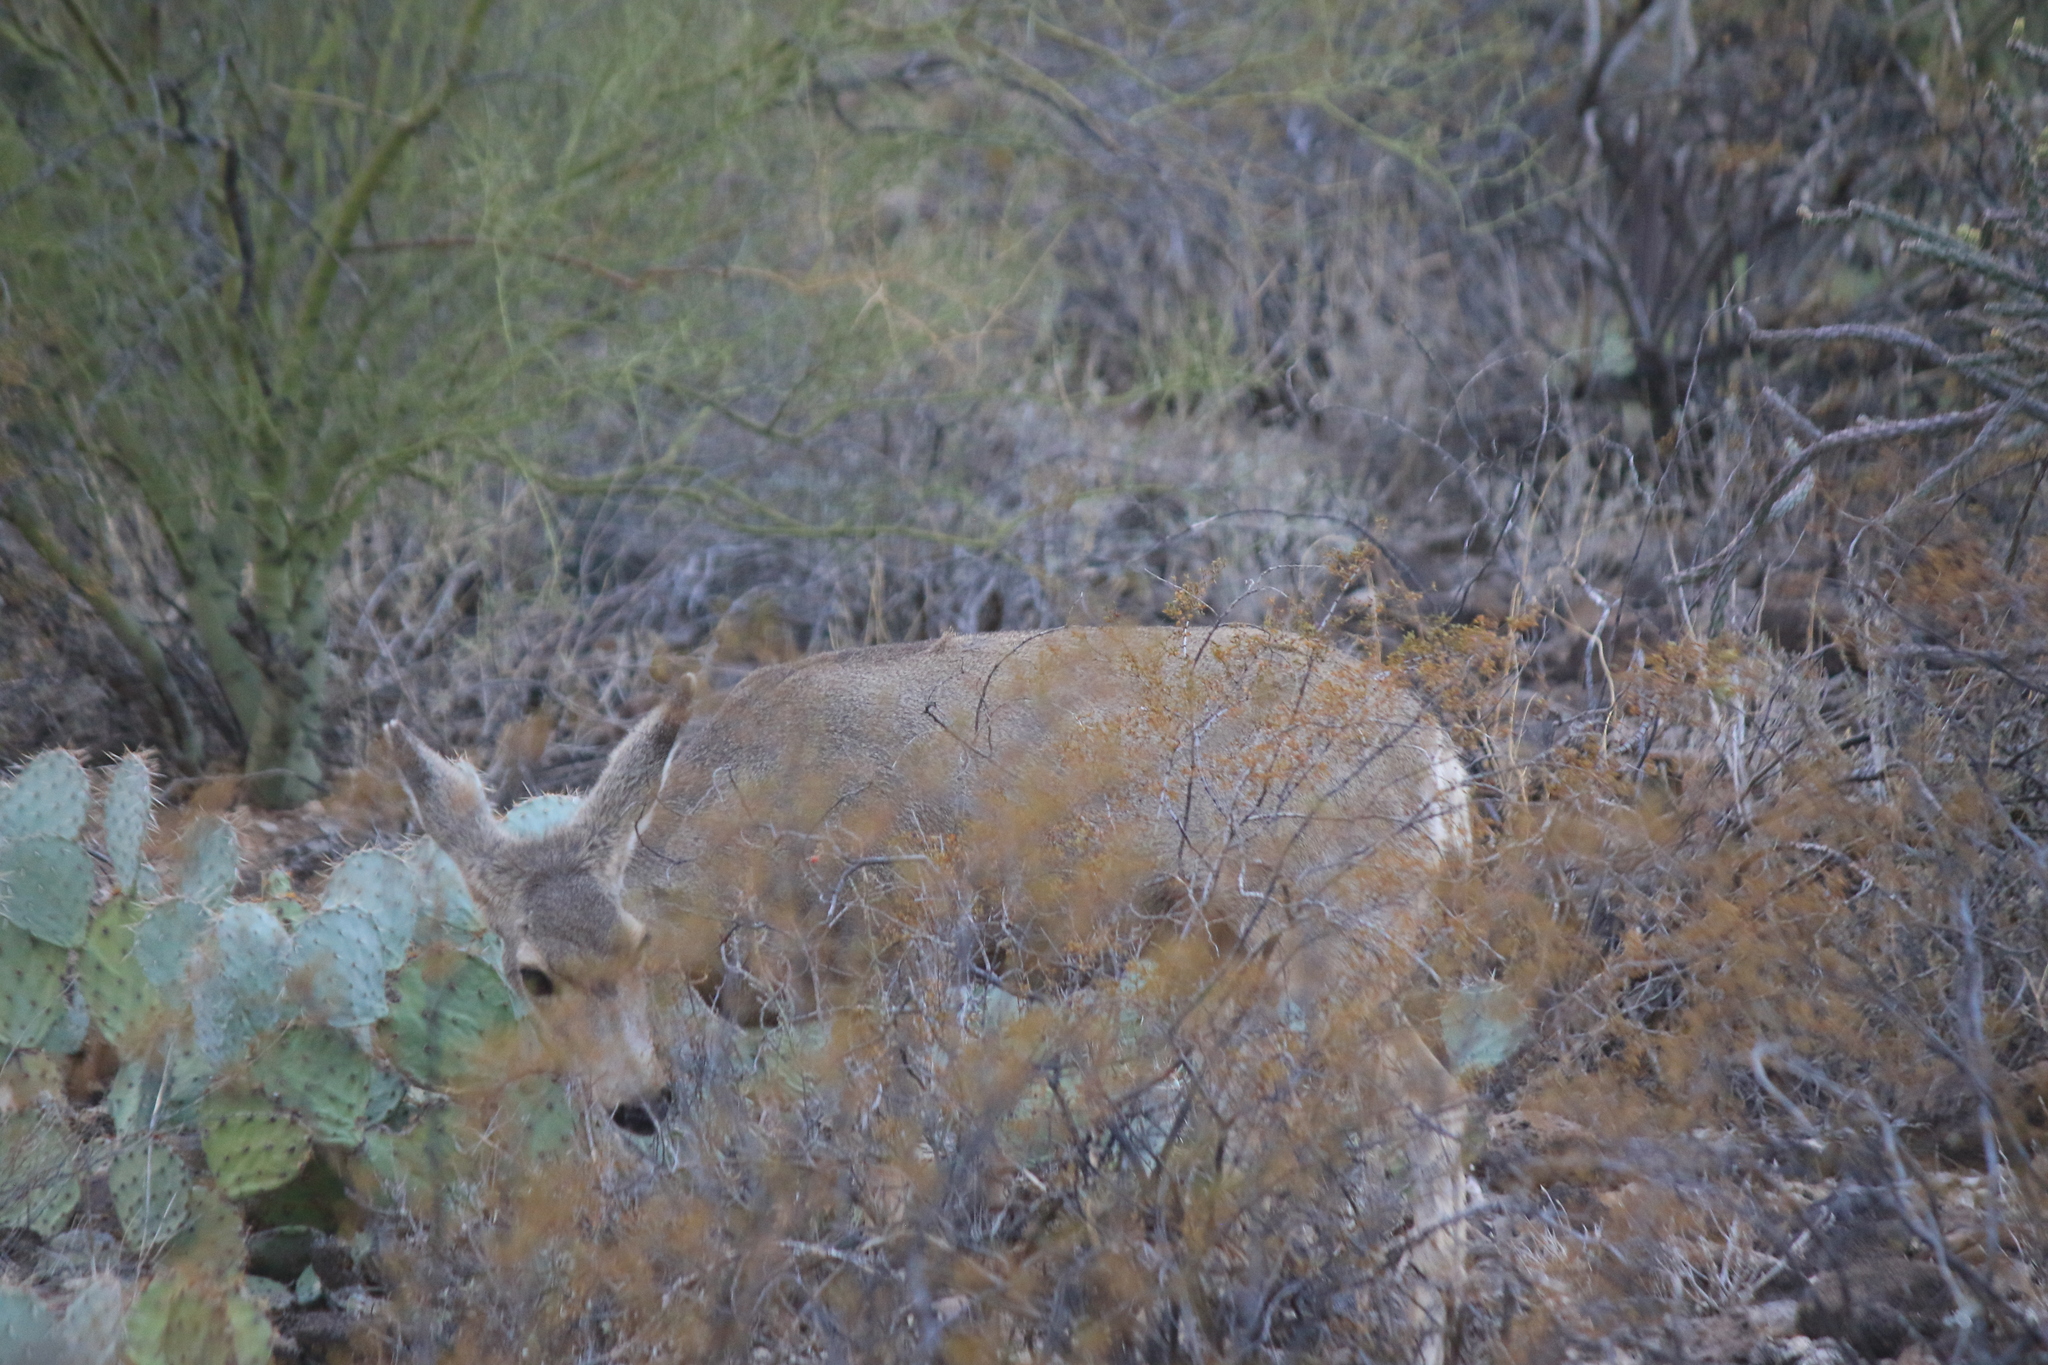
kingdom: Animalia
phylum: Chordata
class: Mammalia
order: Artiodactyla
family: Cervidae
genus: Odocoileus
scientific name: Odocoileus hemionus
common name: Mule deer
